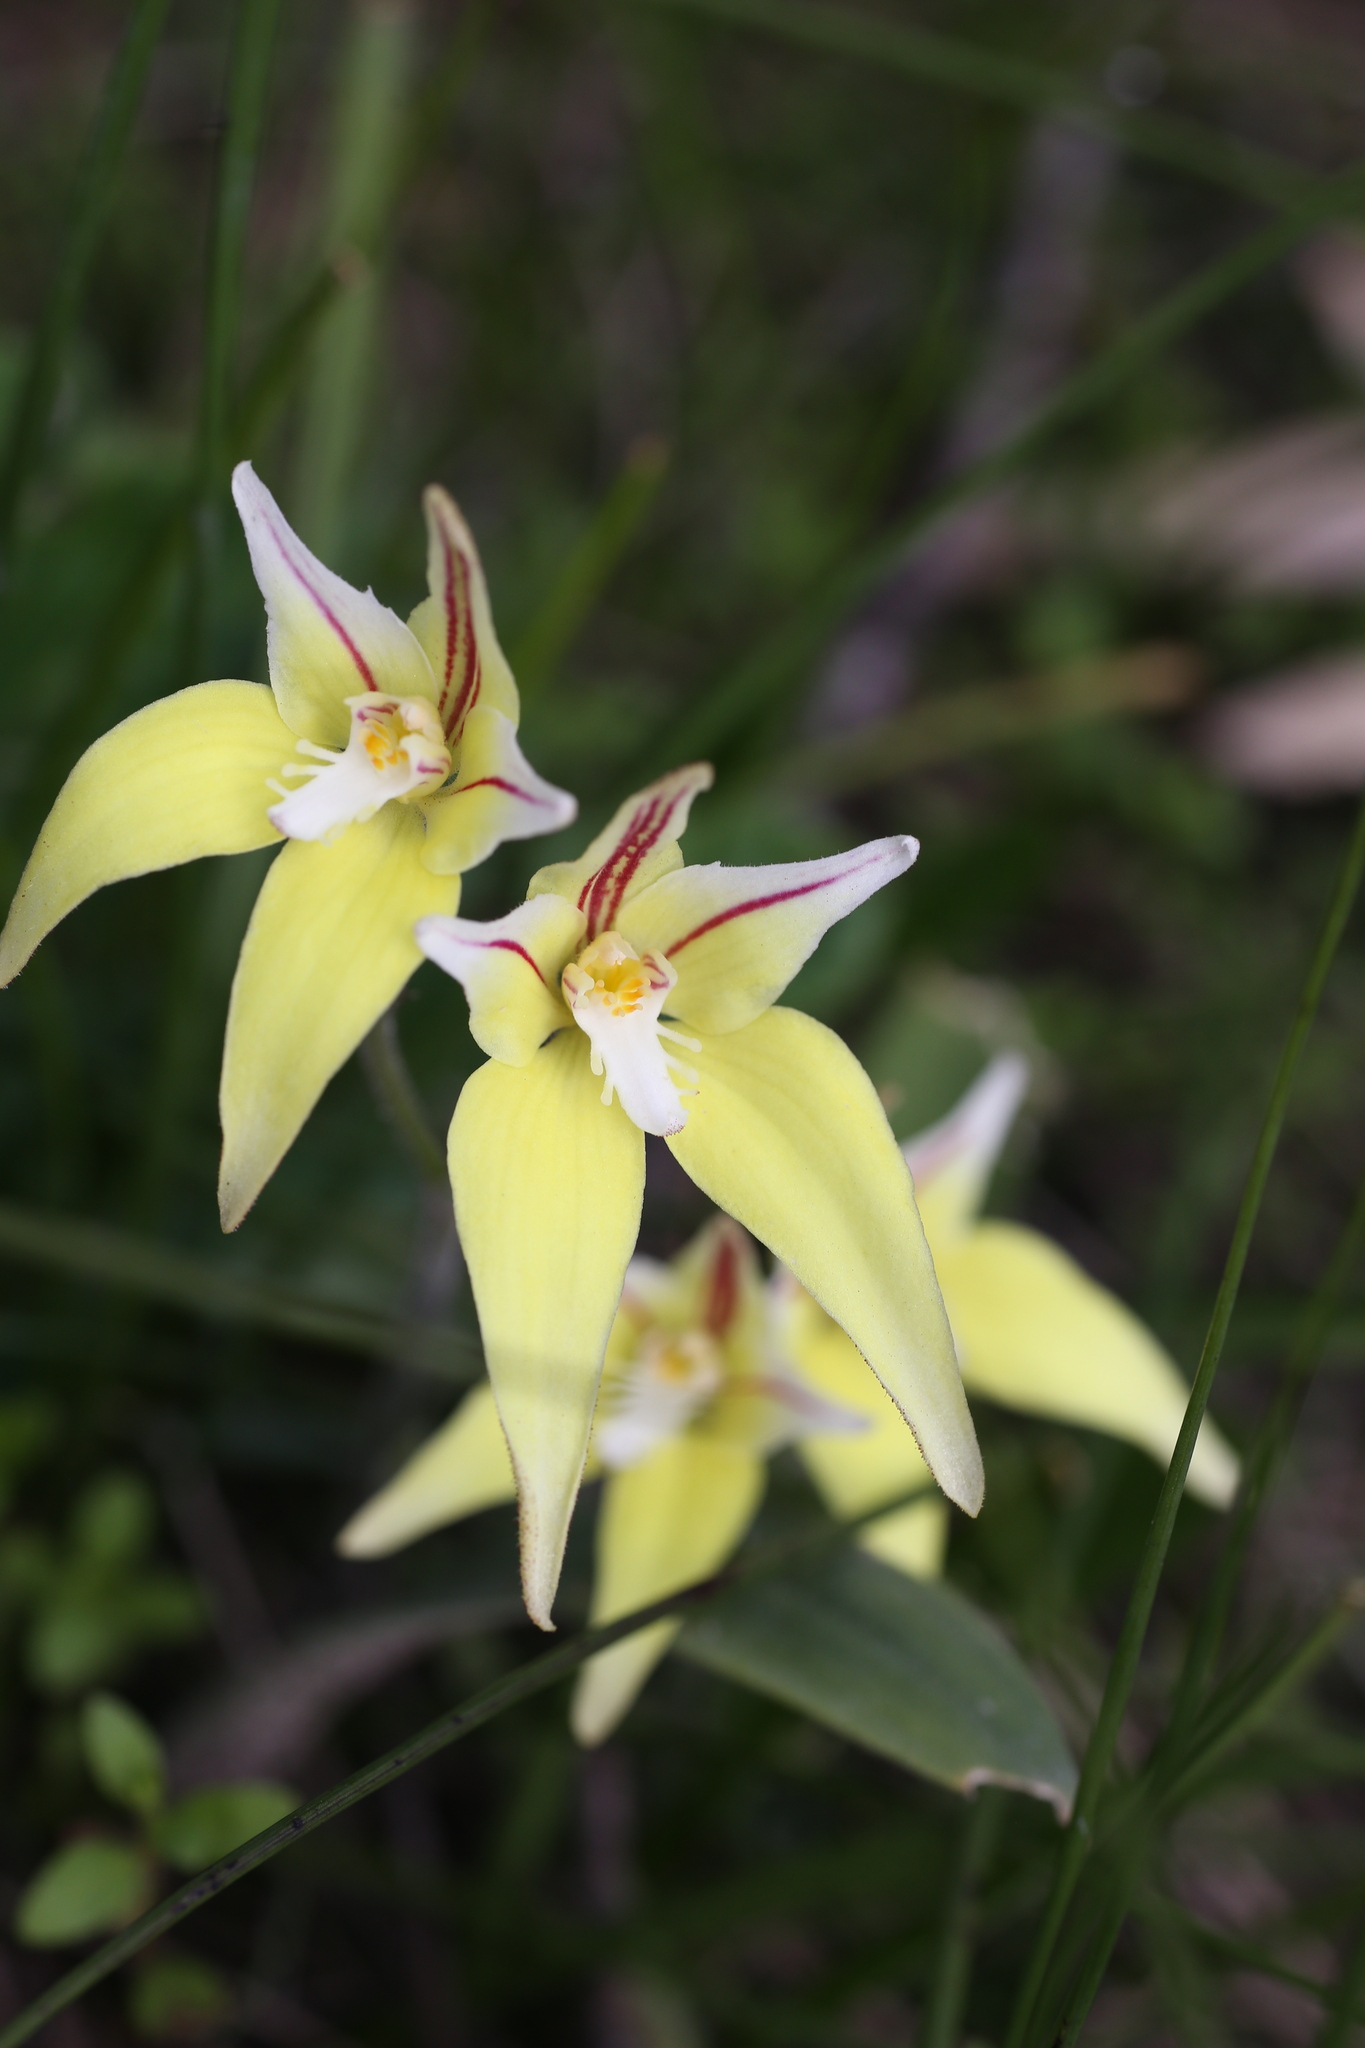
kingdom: Plantae
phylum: Tracheophyta
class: Liliopsida
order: Asparagales
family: Orchidaceae
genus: Caladenia
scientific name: Caladenia flava
